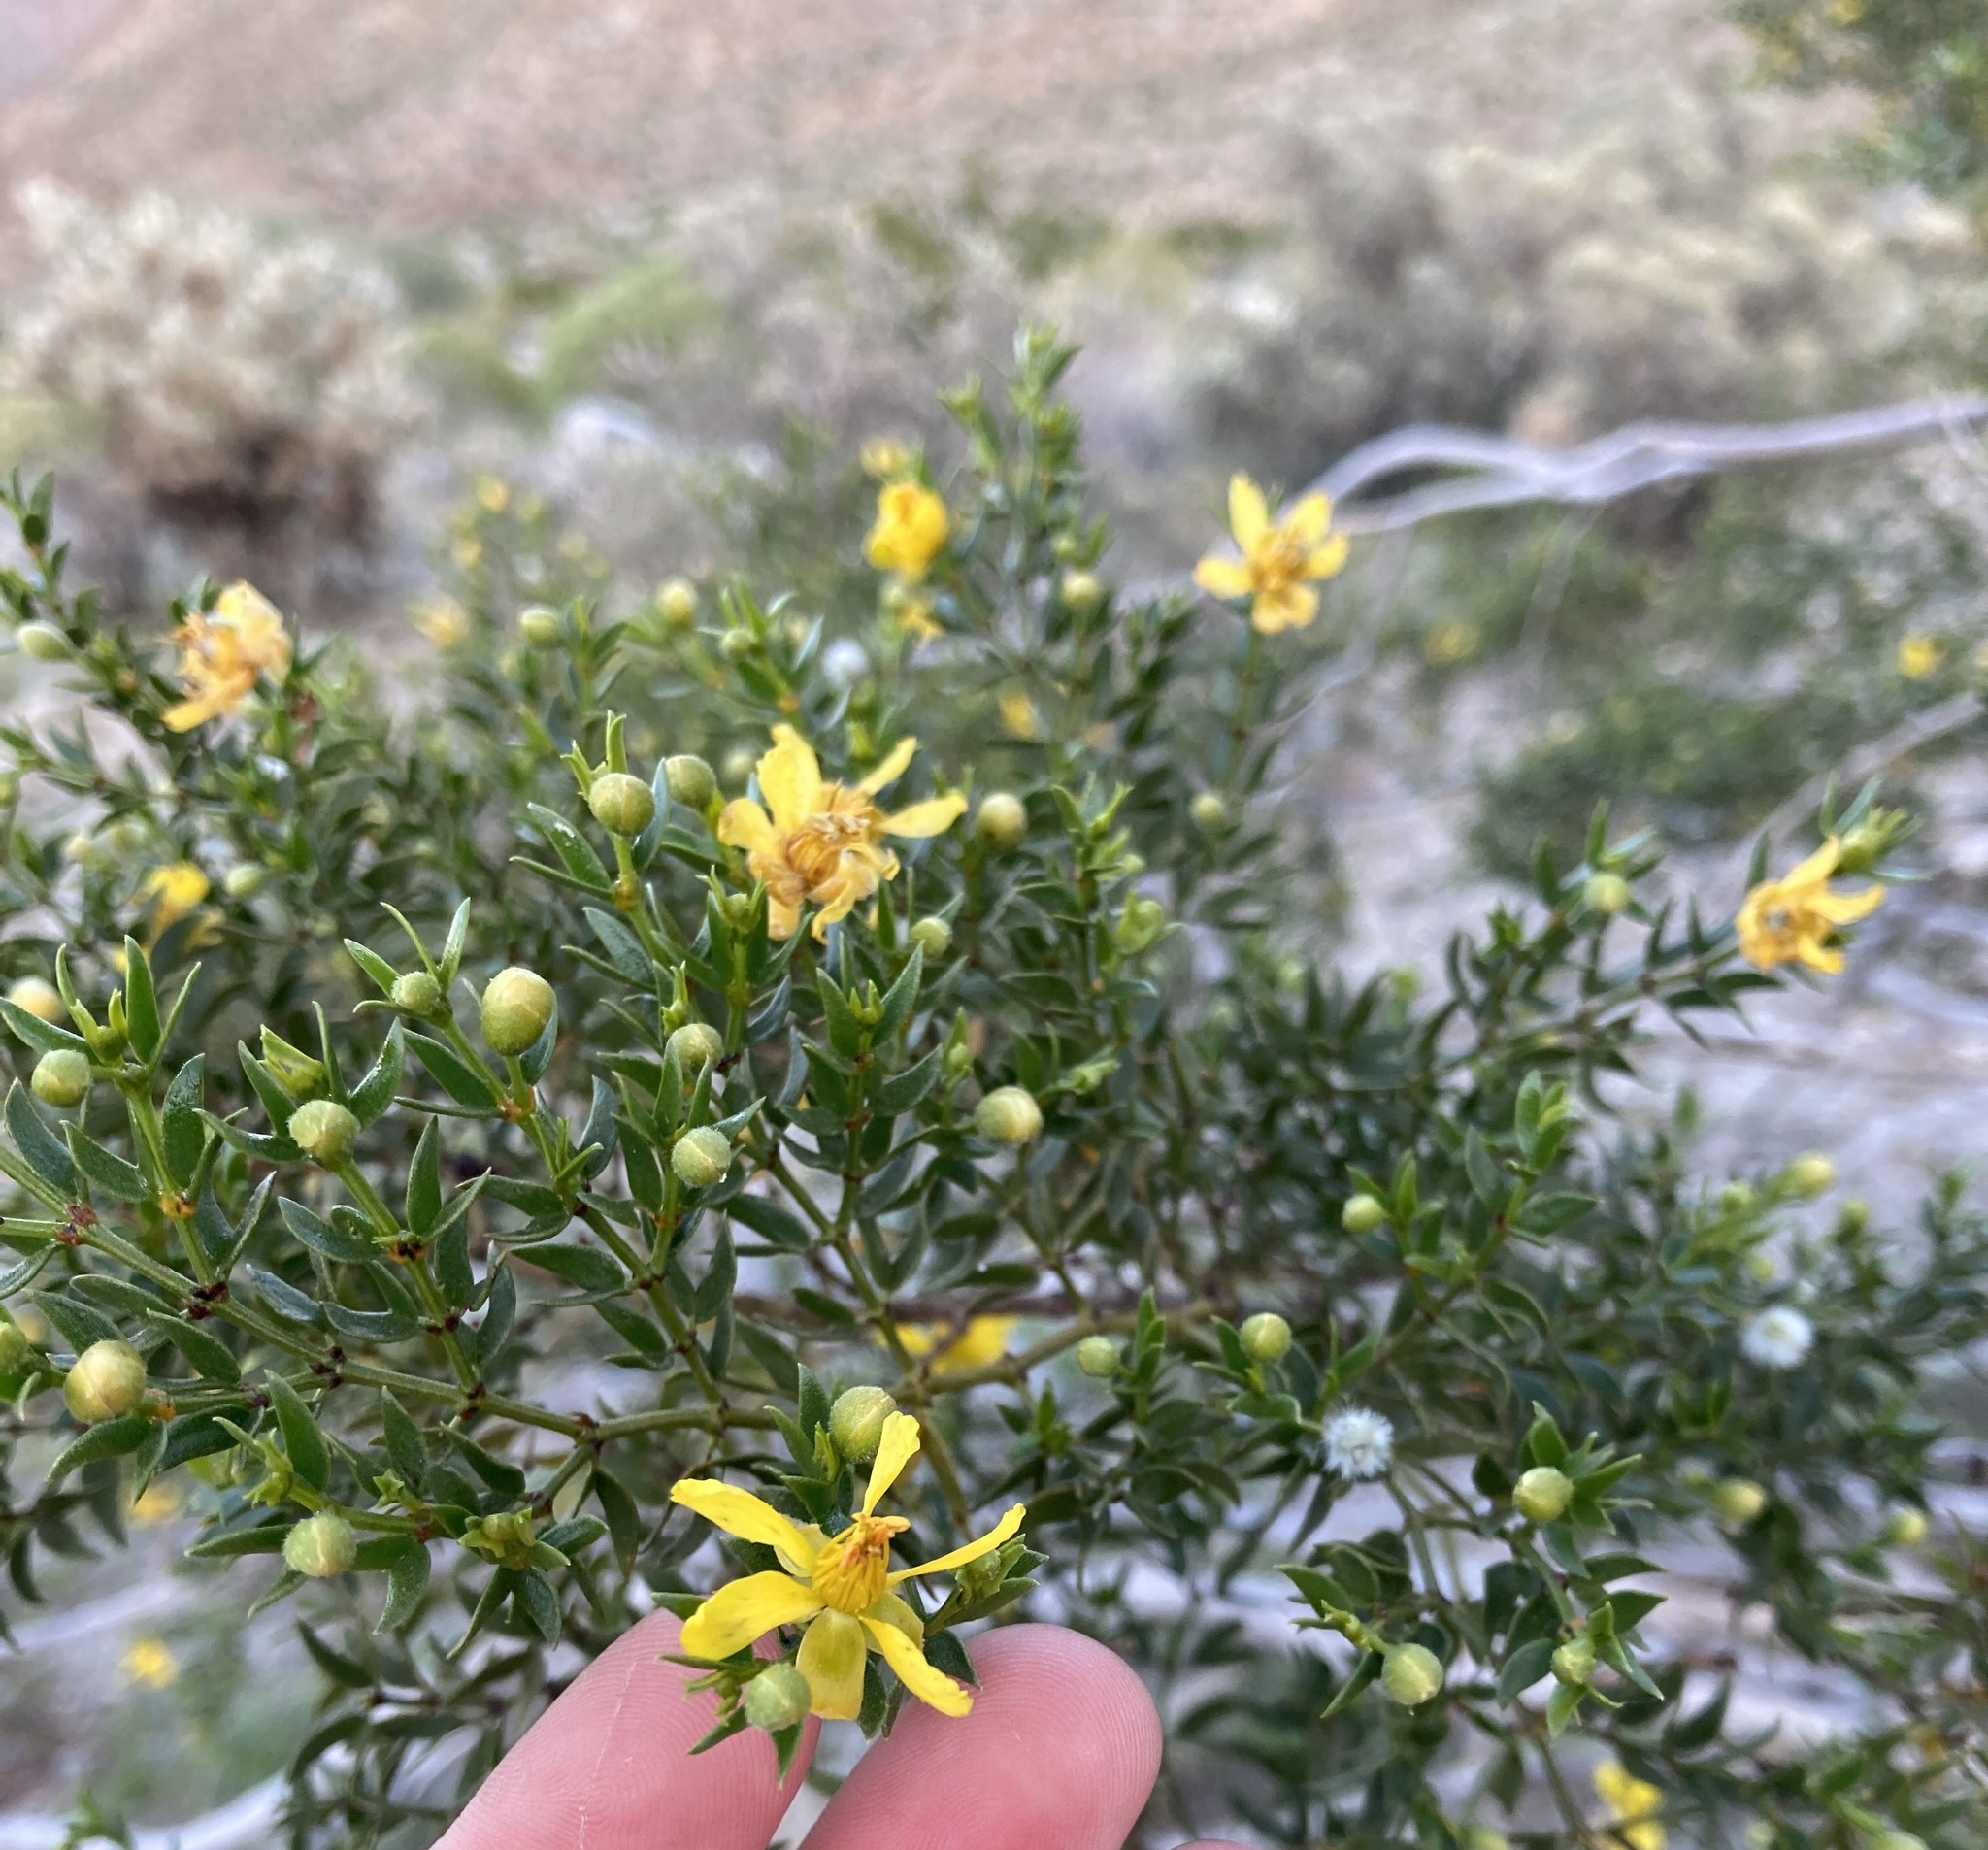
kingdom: Plantae
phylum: Tracheophyta
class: Magnoliopsida
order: Zygophyllales
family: Zygophyllaceae
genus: Larrea
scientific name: Larrea tridentata
